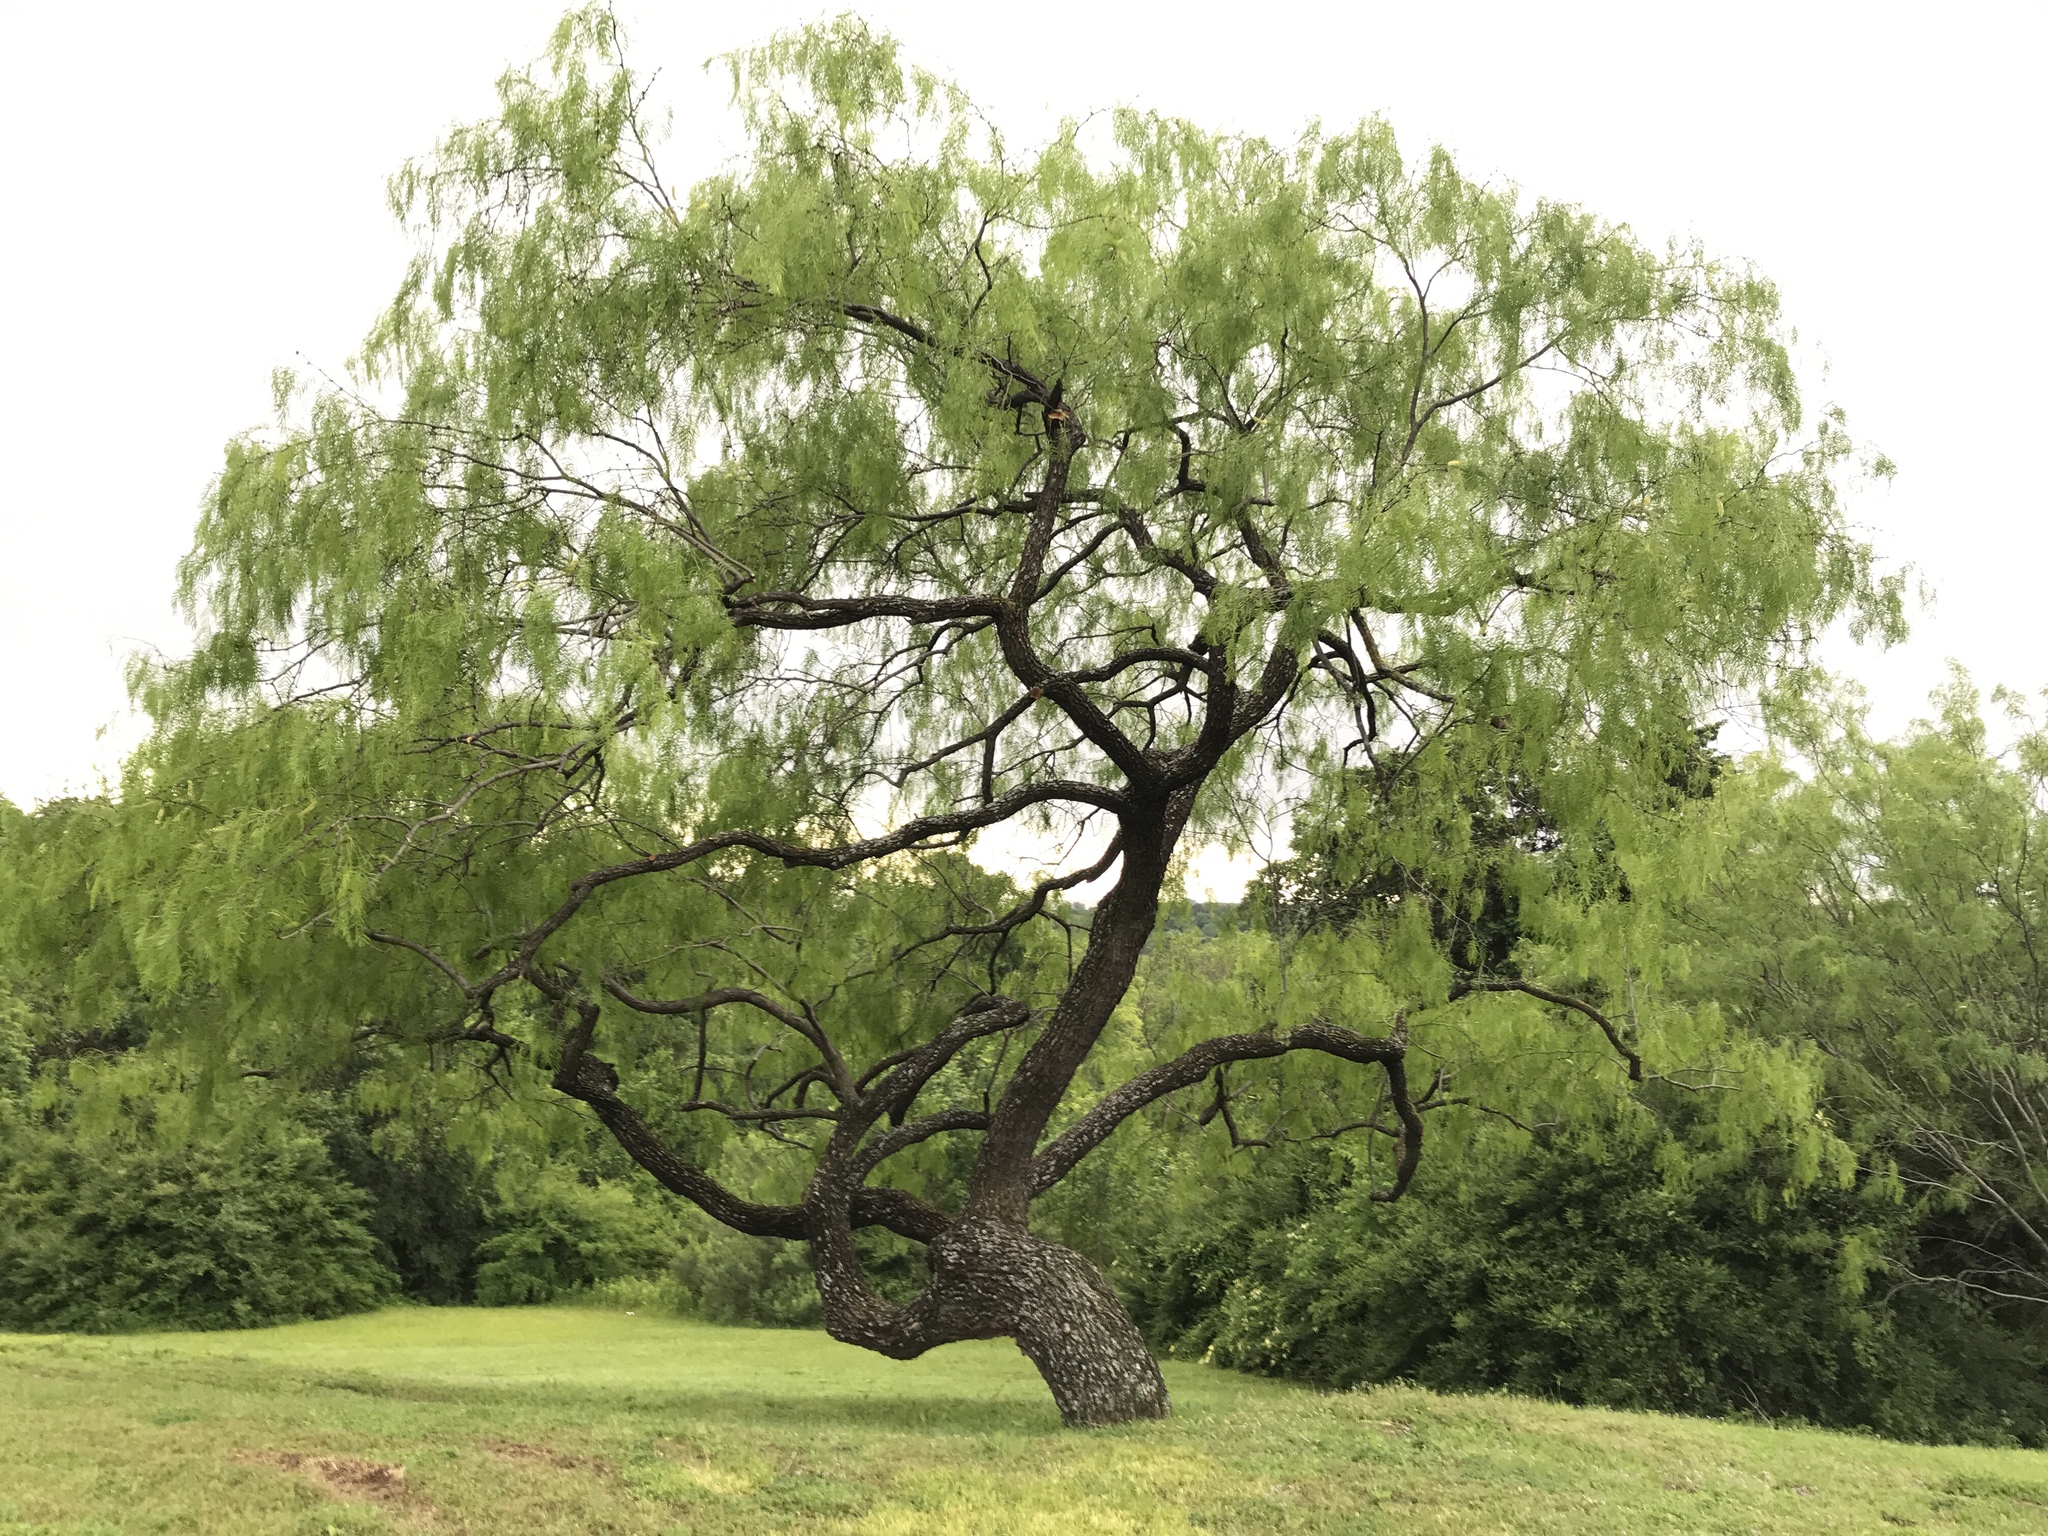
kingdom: Plantae
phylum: Tracheophyta
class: Magnoliopsida
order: Fabales
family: Fabaceae
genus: Prosopis
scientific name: Prosopis glandulosa
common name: Honey mesquite
